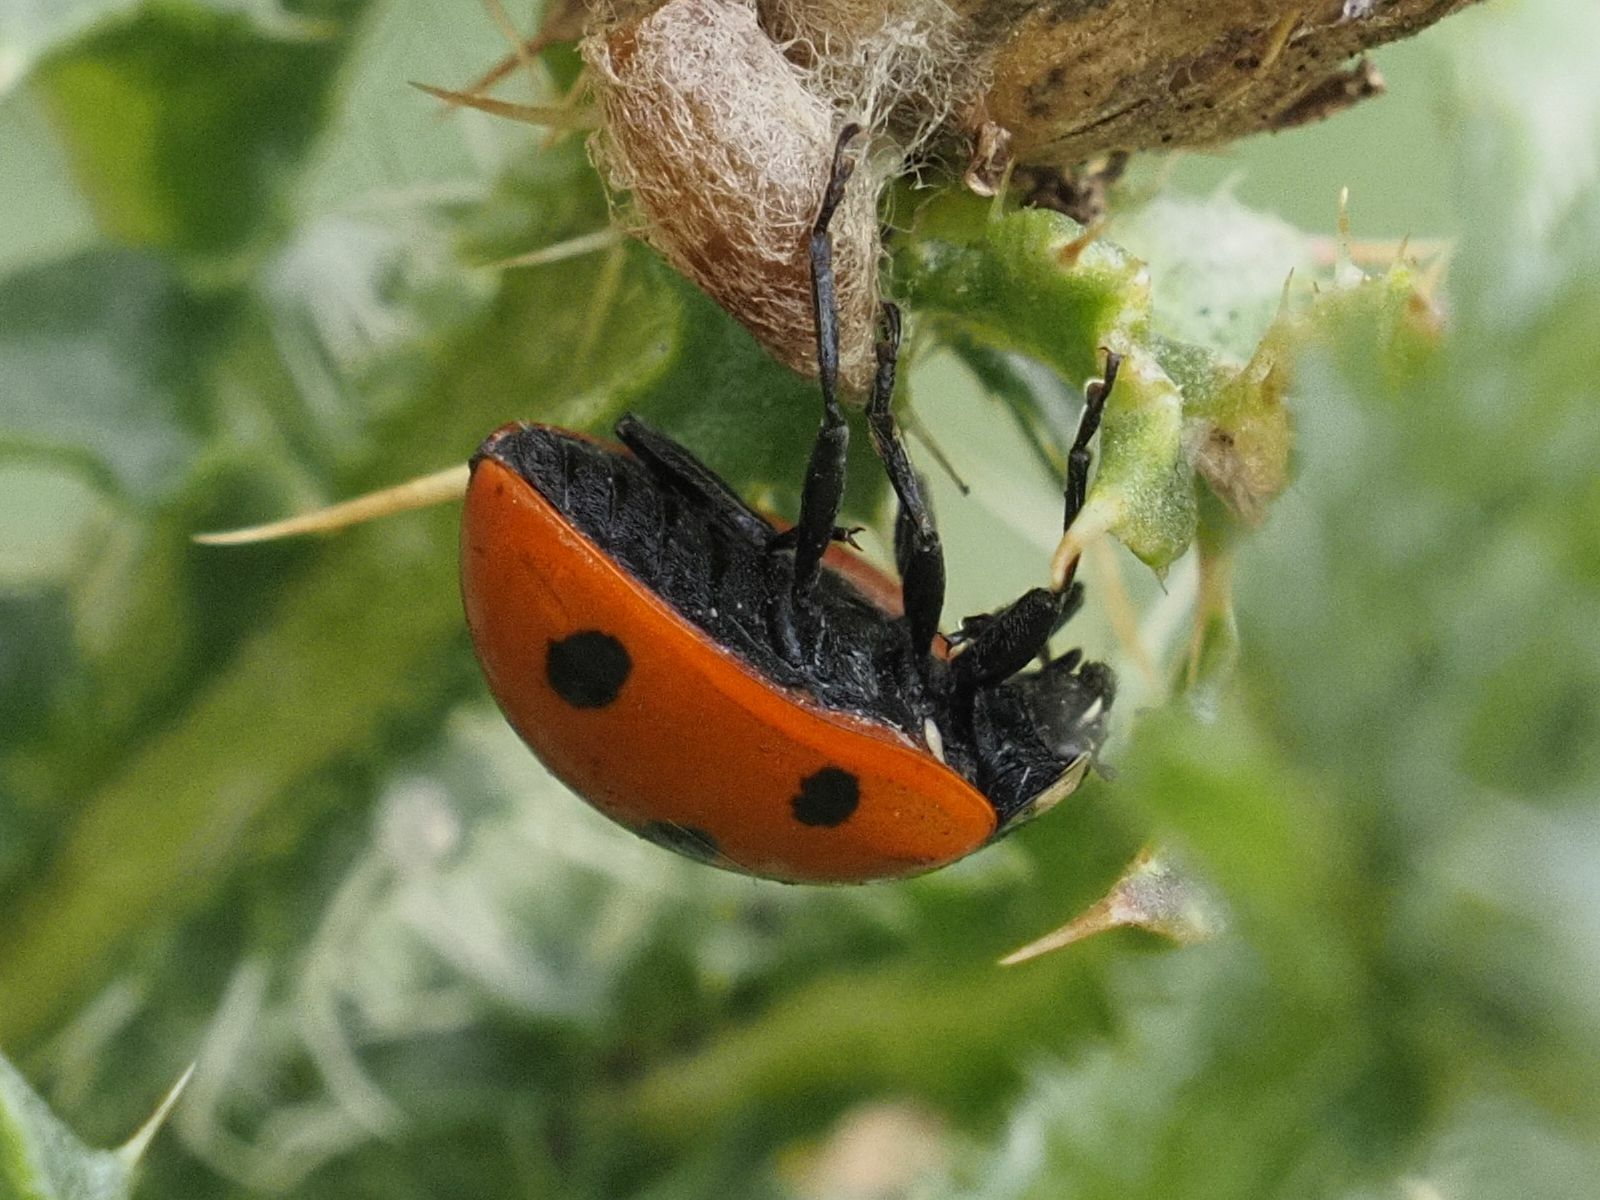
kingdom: Animalia
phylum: Arthropoda
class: Insecta
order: Coleoptera
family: Coccinellidae
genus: Coccinella
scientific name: Coccinella septempunctata
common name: Sevenspotted lady beetle
